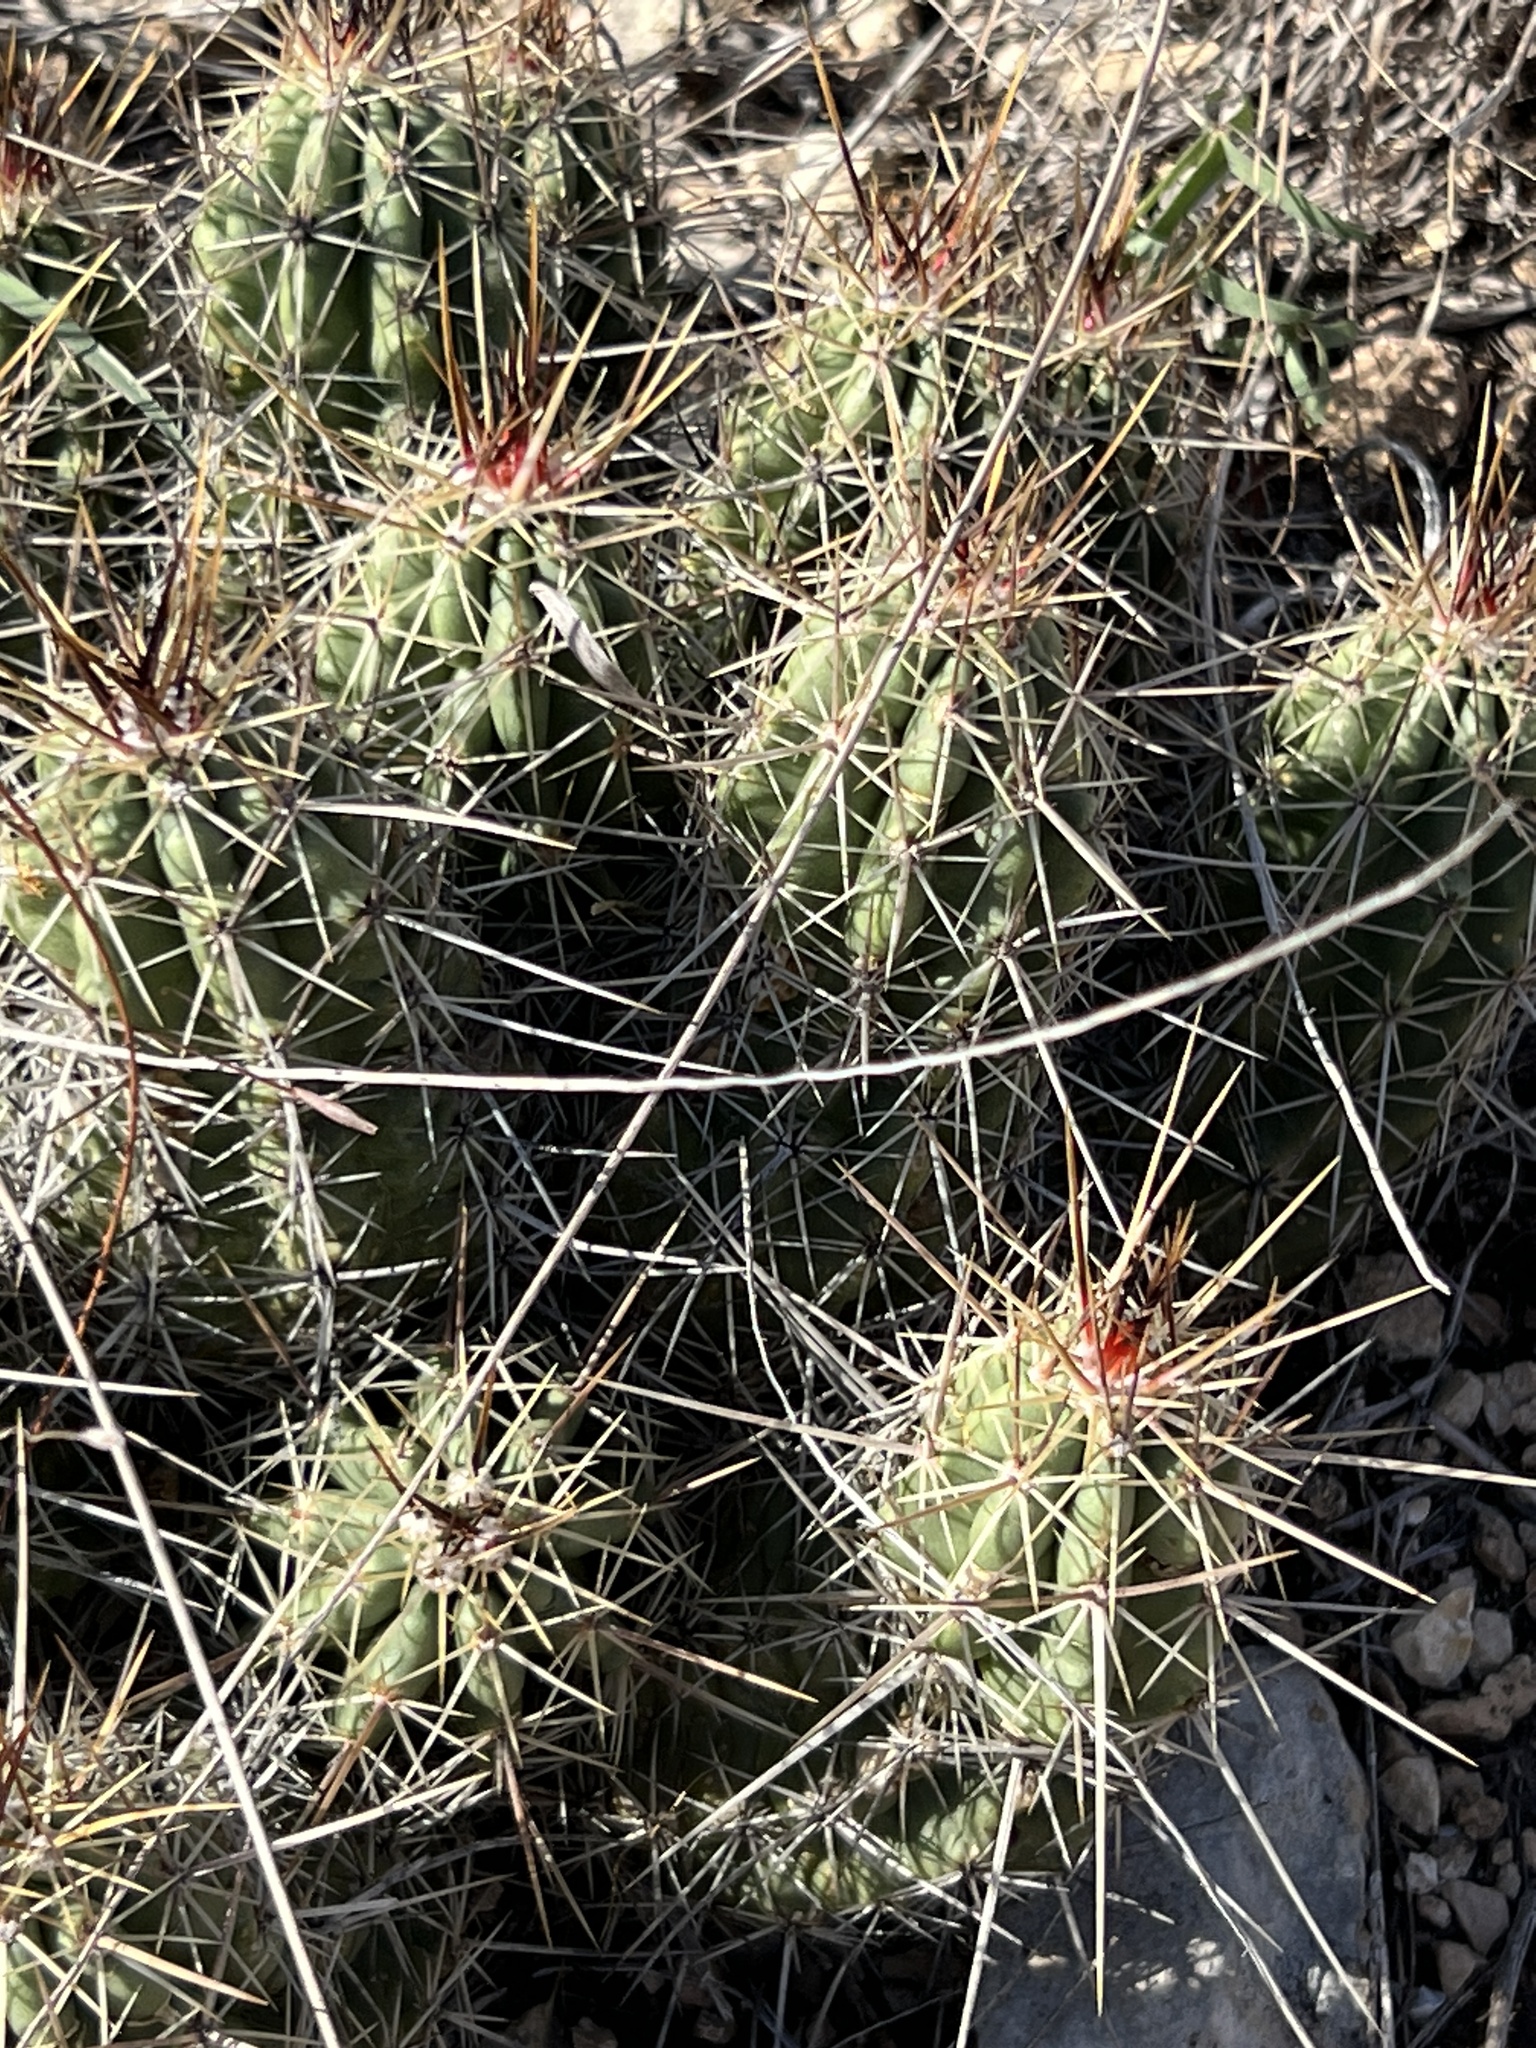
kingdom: Plantae
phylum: Tracheophyta
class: Magnoliopsida
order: Caryophyllales
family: Cactaceae
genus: Echinocereus
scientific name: Echinocereus enneacanthus
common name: Pitaya
